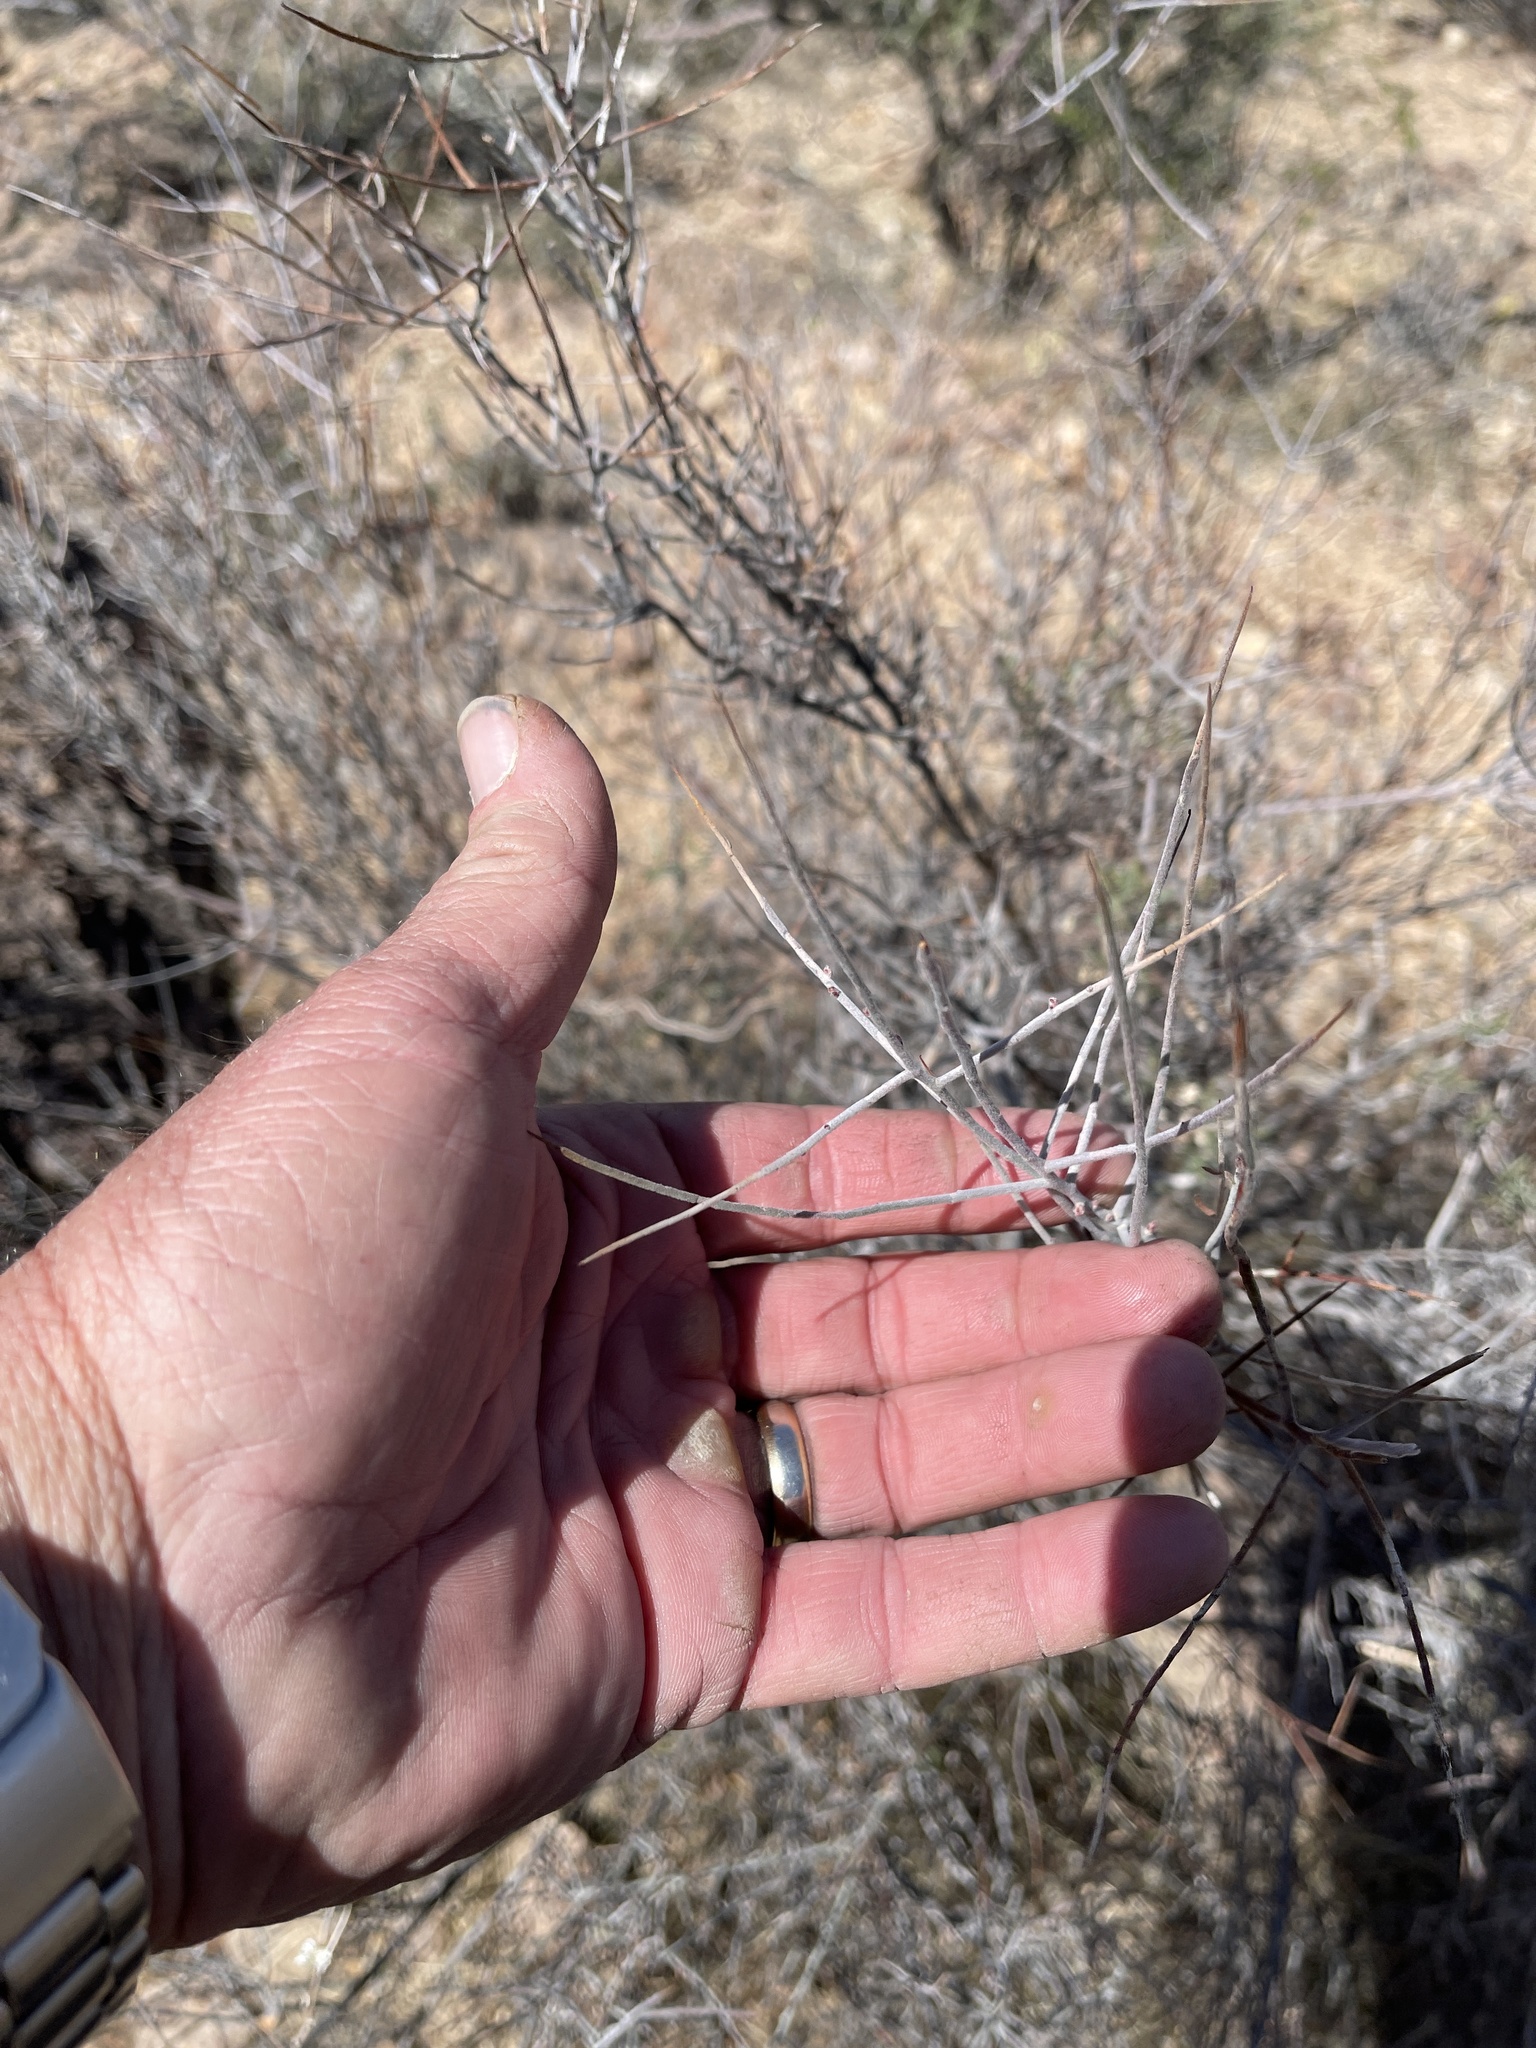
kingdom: Plantae
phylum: Tracheophyta
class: Magnoliopsida
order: Zygophyllales
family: Krameriaceae
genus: Krameria
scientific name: Krameria bicolor
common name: White ratany
